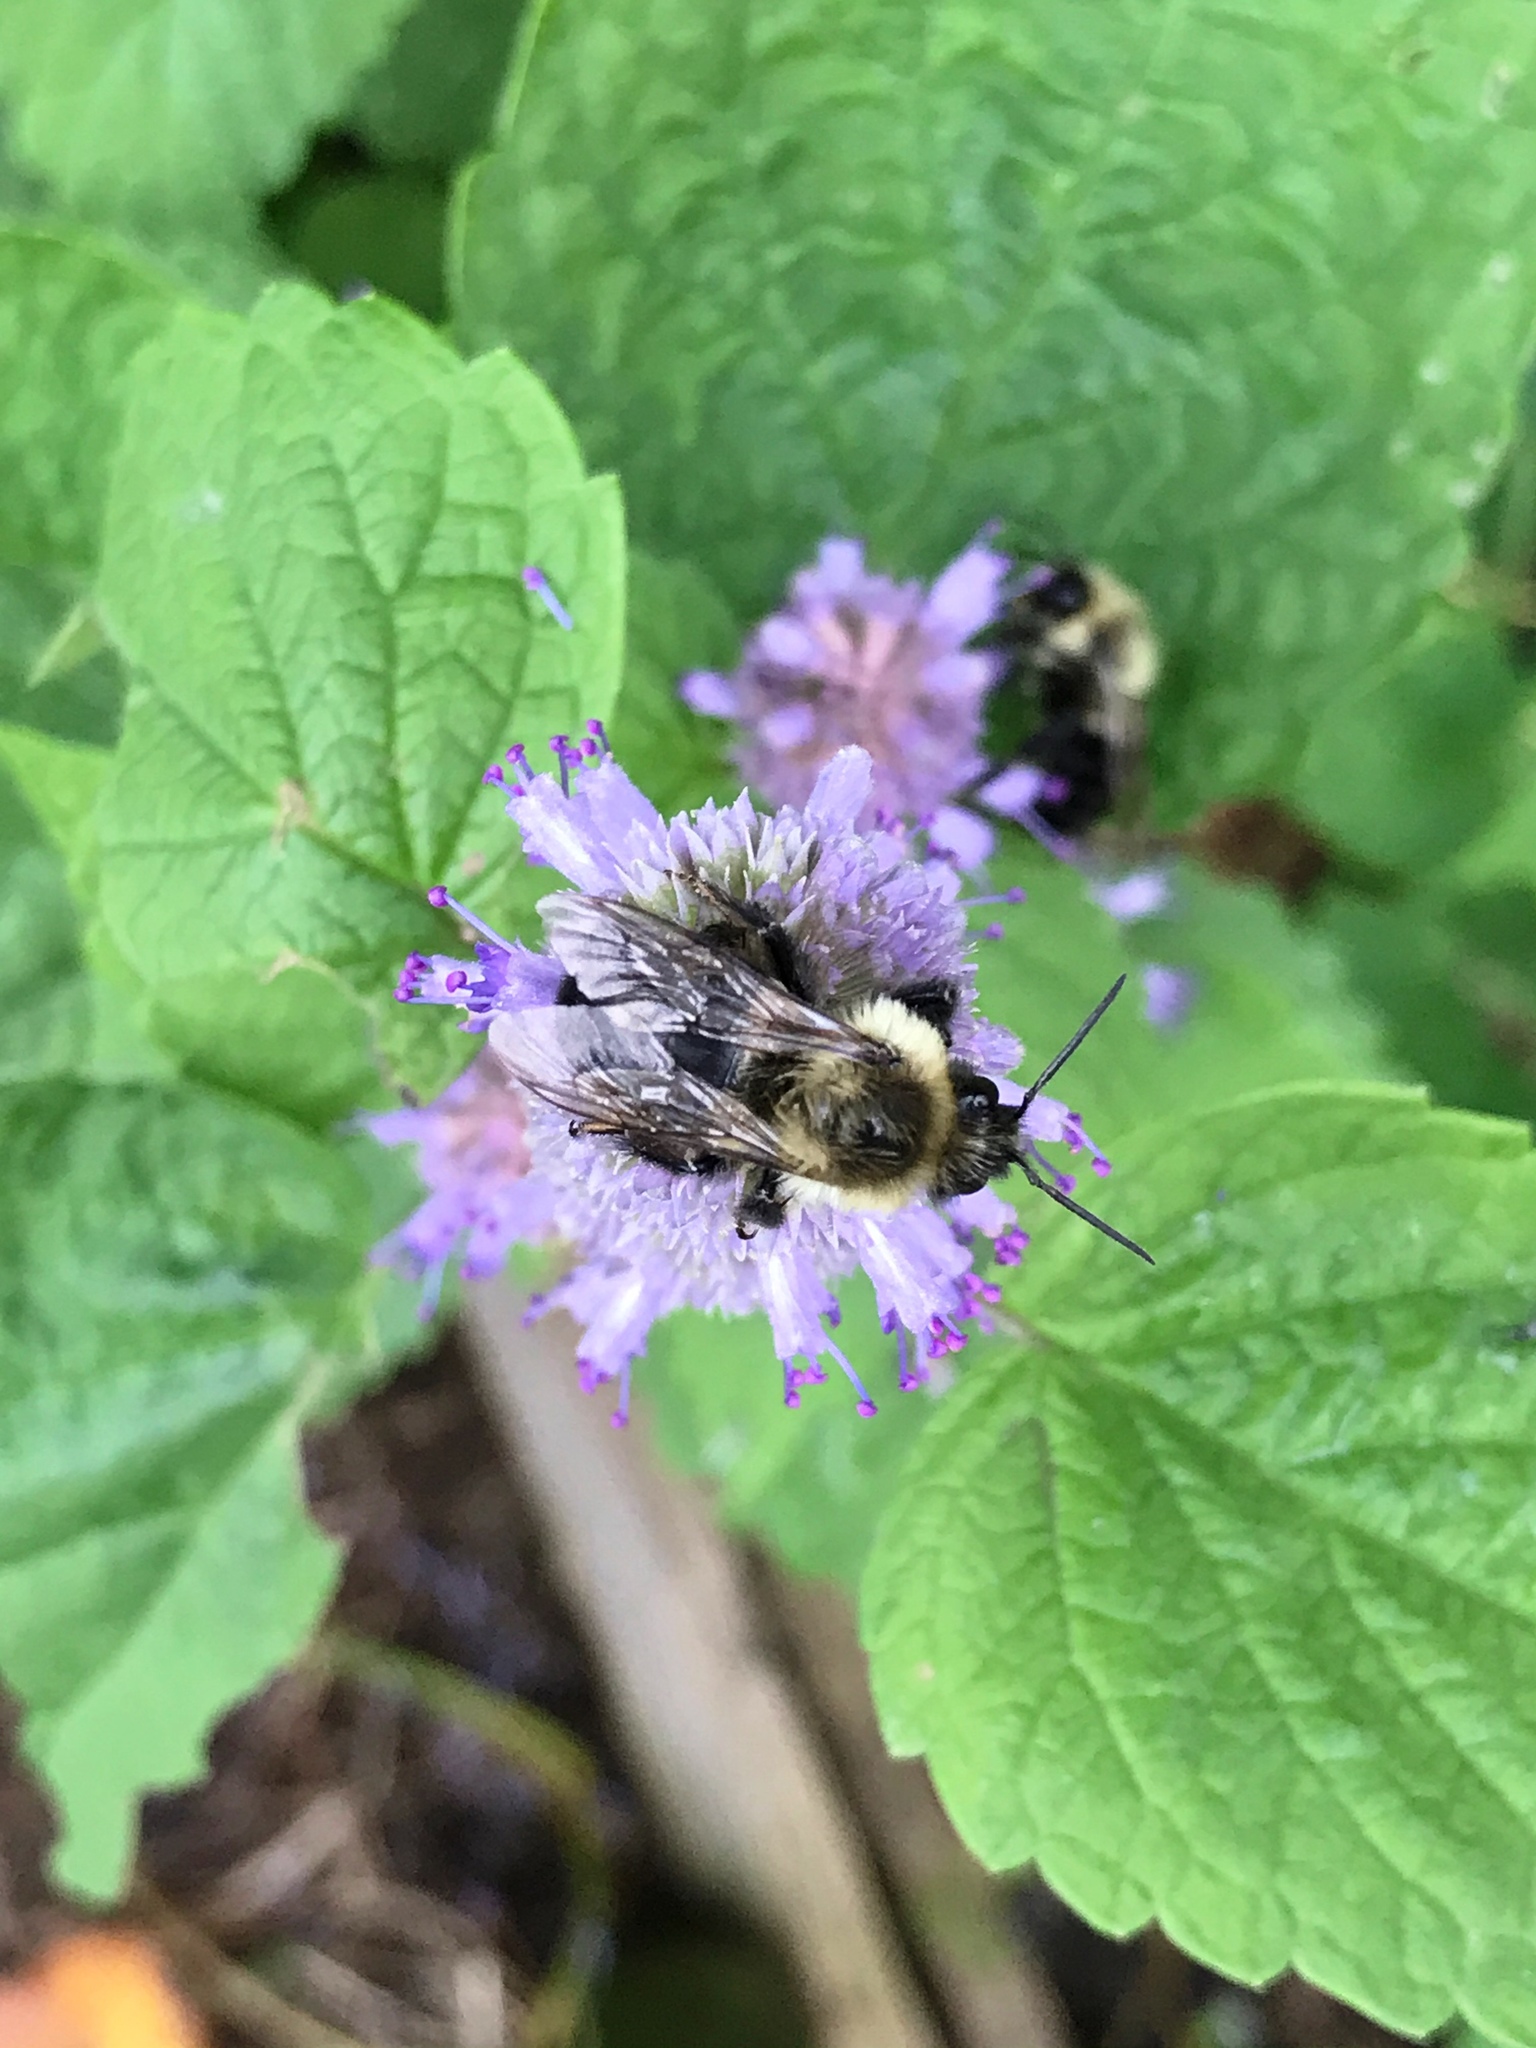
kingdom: Animalia
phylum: Arthropoda
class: Insecta
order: Hymenoptera
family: Apidae
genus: Bombus
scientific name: Bombus impatiens
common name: Common eastern bumble bee
